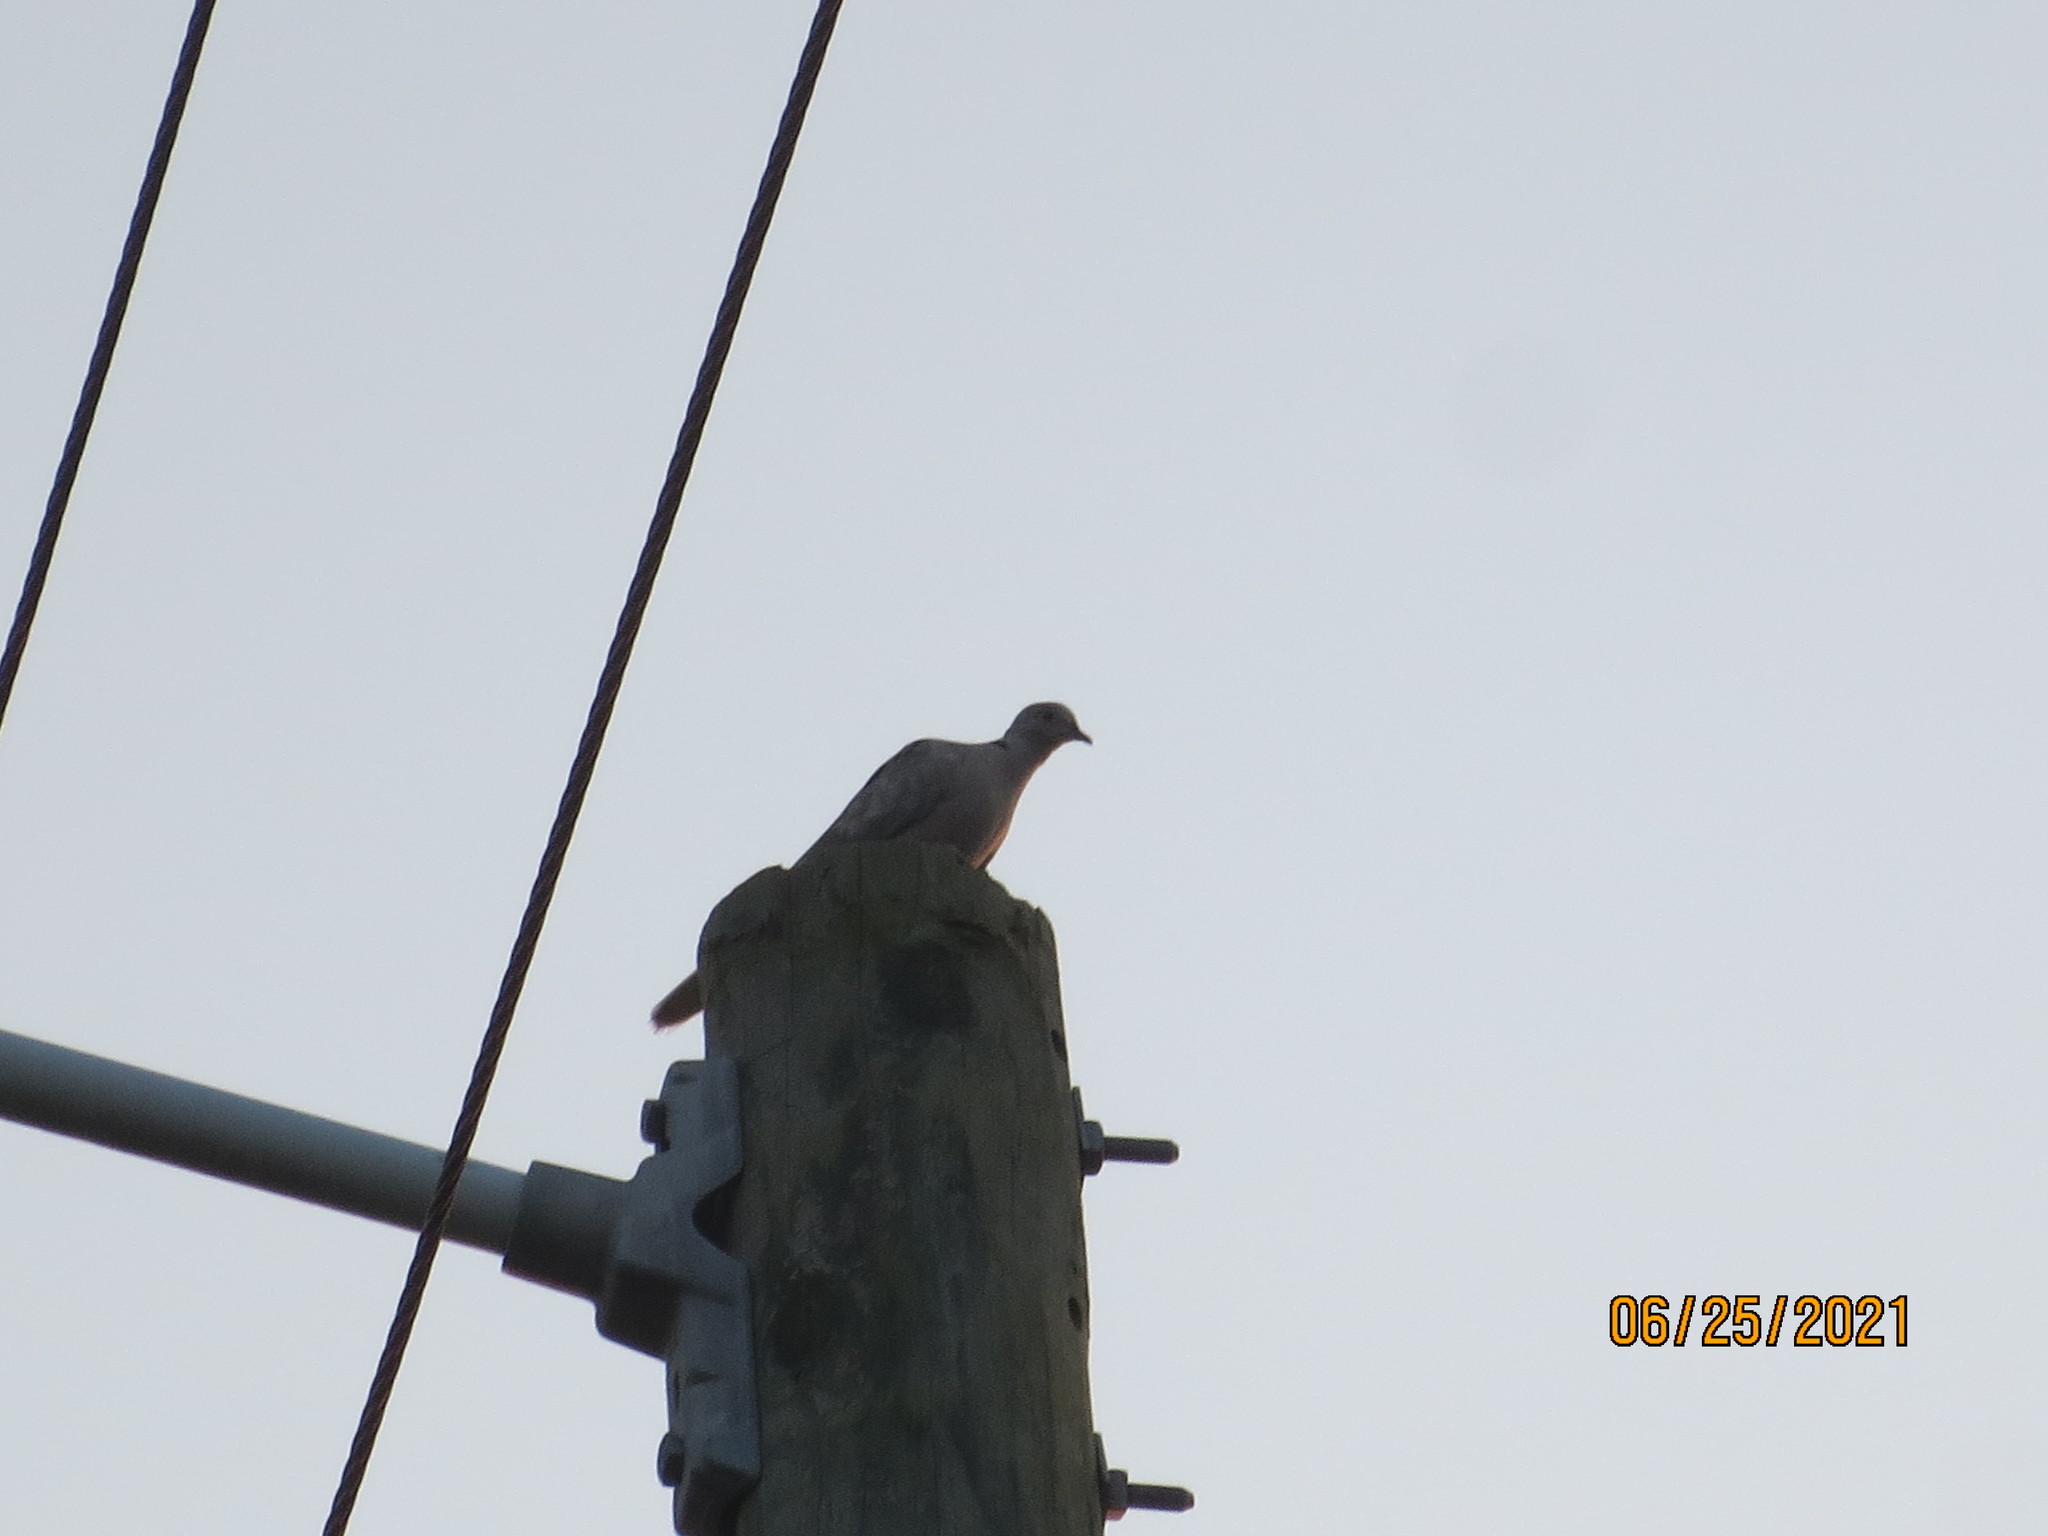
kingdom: Animalia
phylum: Chordata
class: Aves
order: Columbiformes
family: Columbidae
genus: Streptopelia
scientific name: Streptopelia decaocto
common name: Eurasian collared dove
